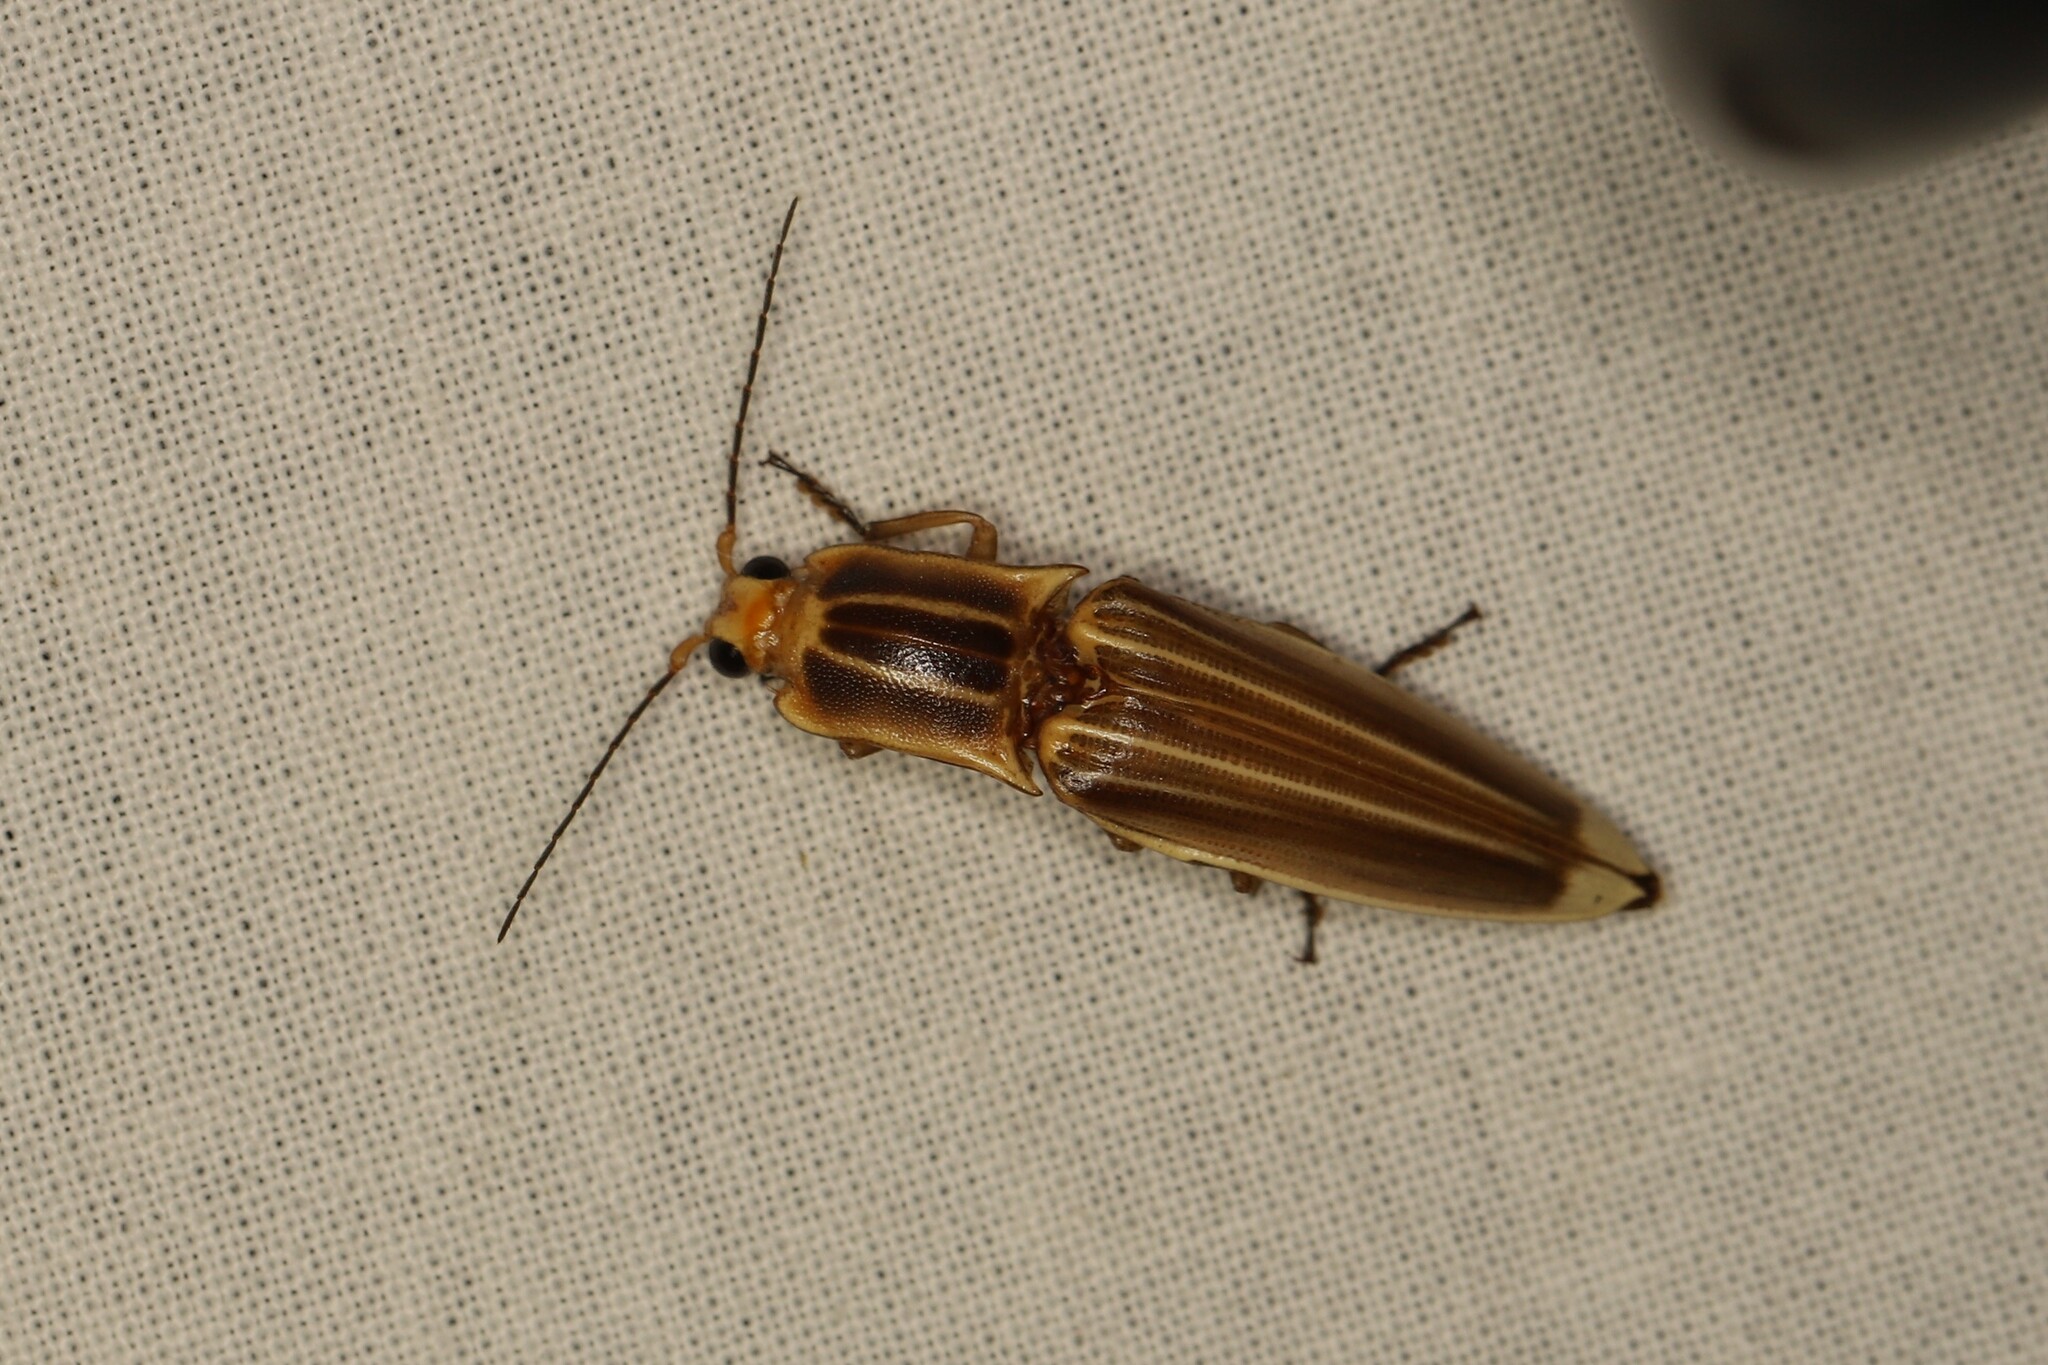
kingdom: Animalia
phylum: Arthropoda
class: Insecta
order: Coleoptera
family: Elateridae
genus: Semiotus
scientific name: Semiotus ligneus
